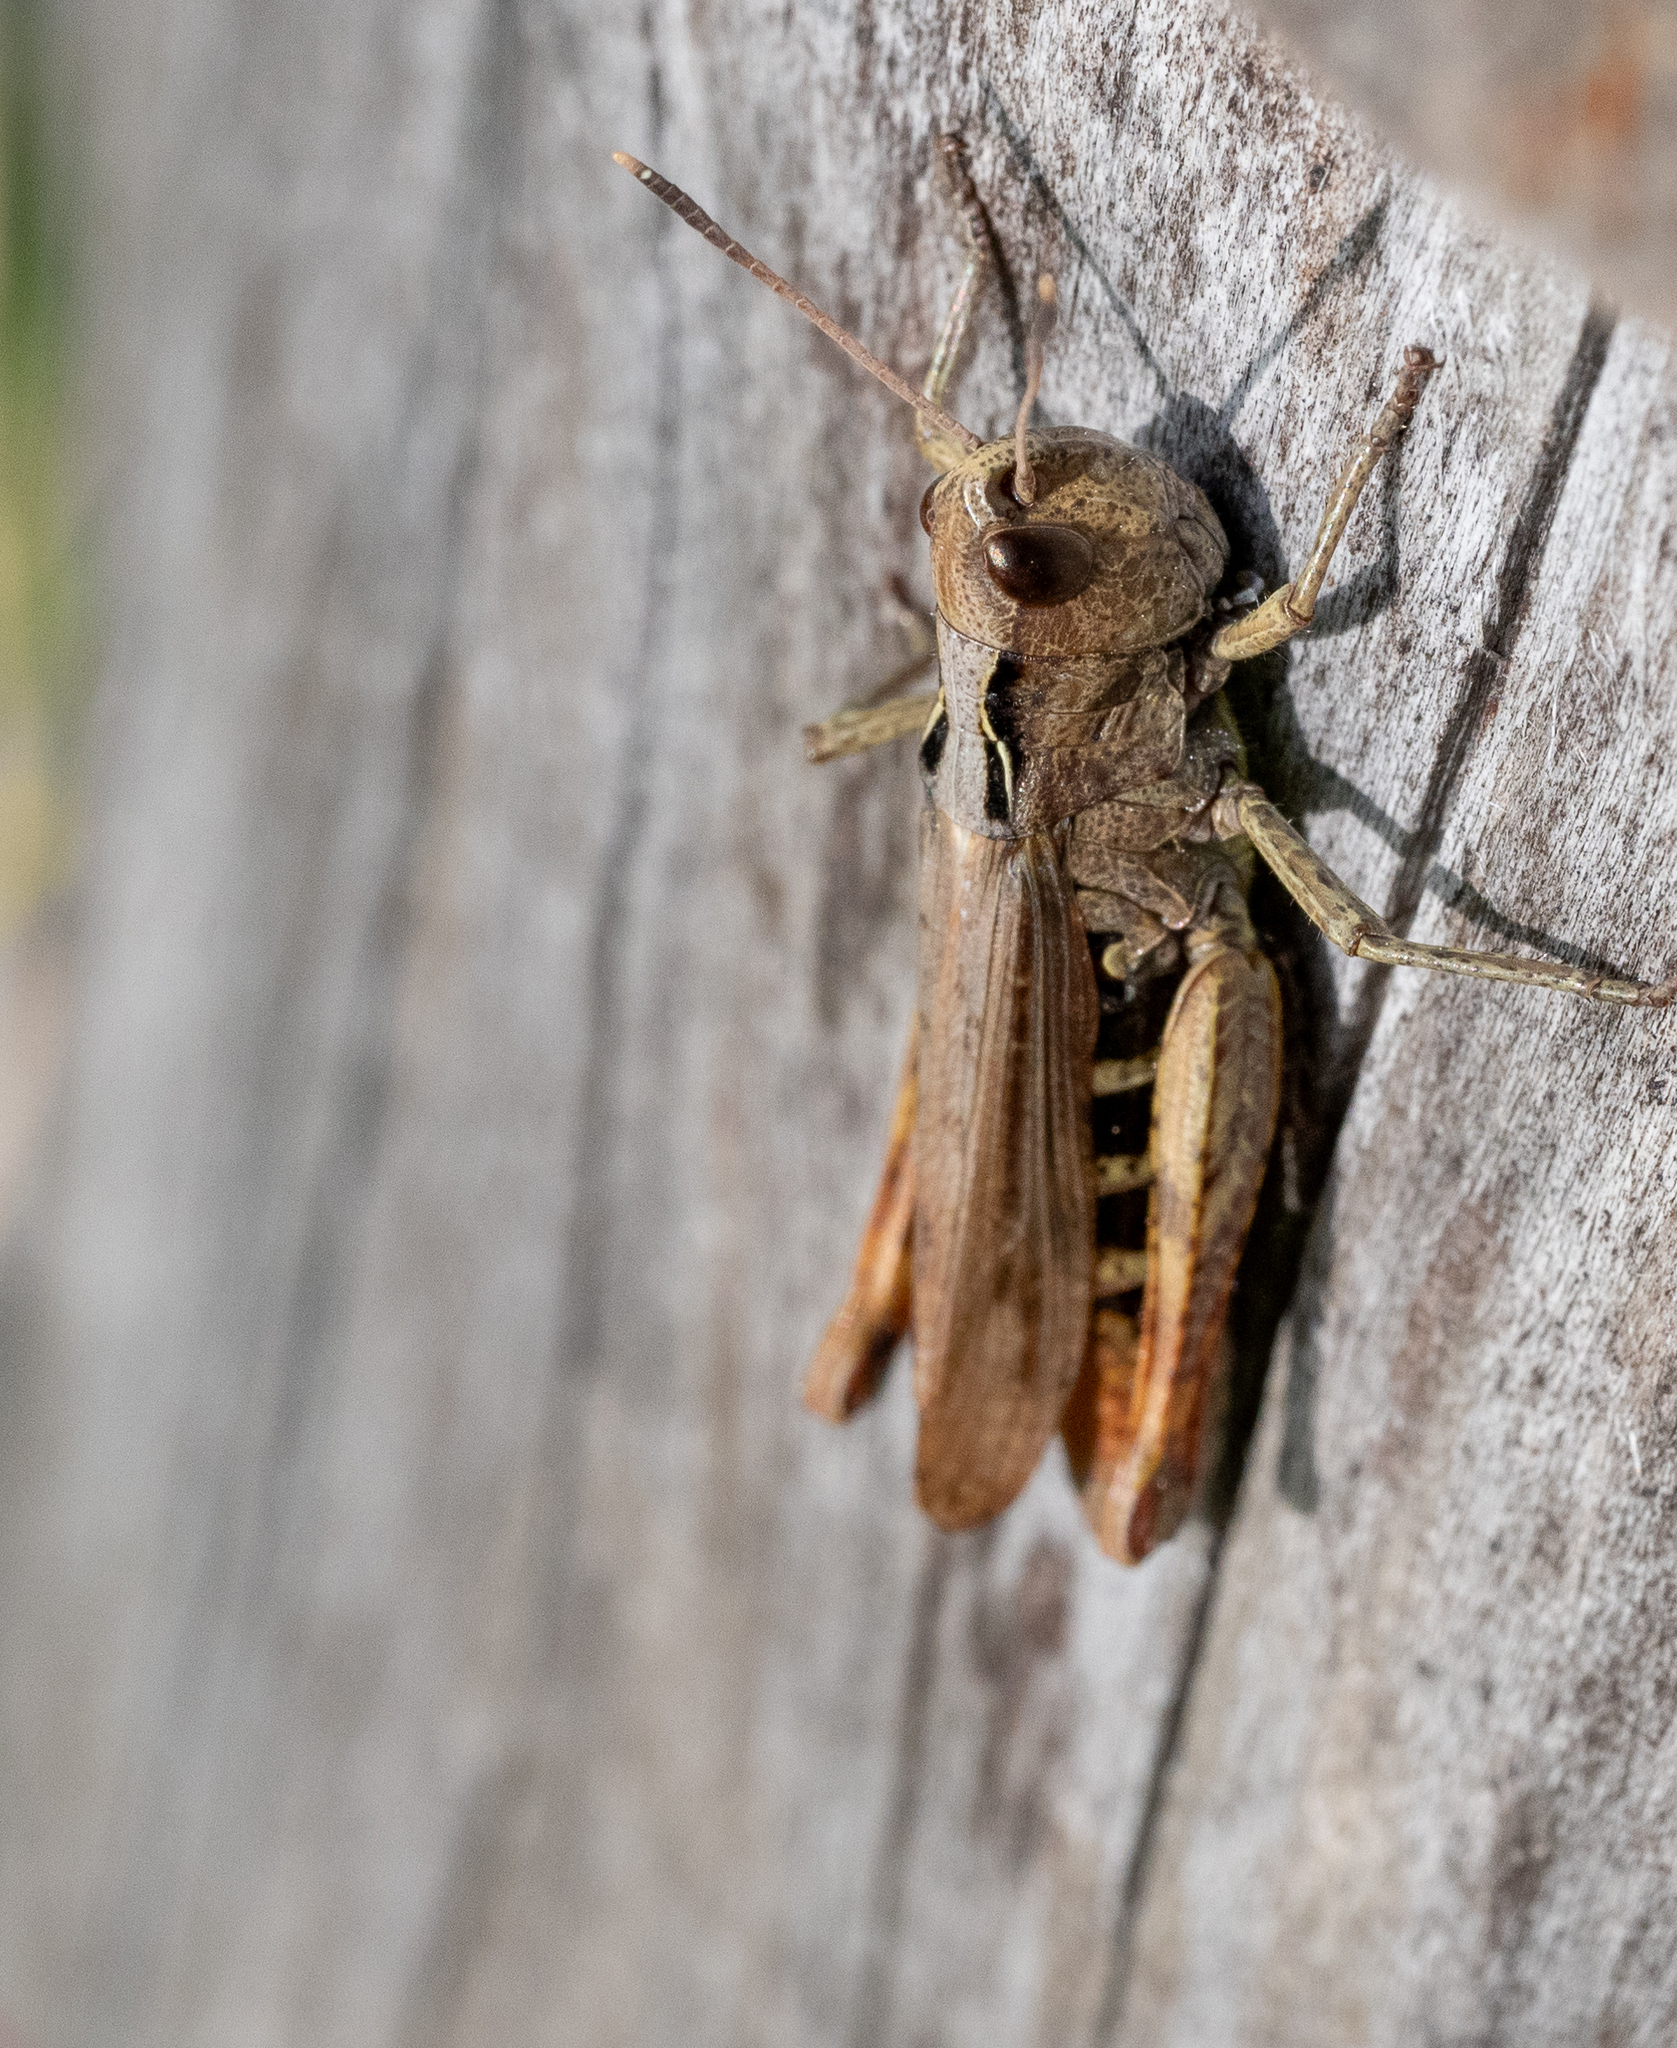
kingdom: Animalia
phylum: Arthropoda
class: Insecta
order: Orthoptera
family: Acrididae
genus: Gomphocerippus
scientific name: Gomphocerippus rufus
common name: Rufous grasshopper
